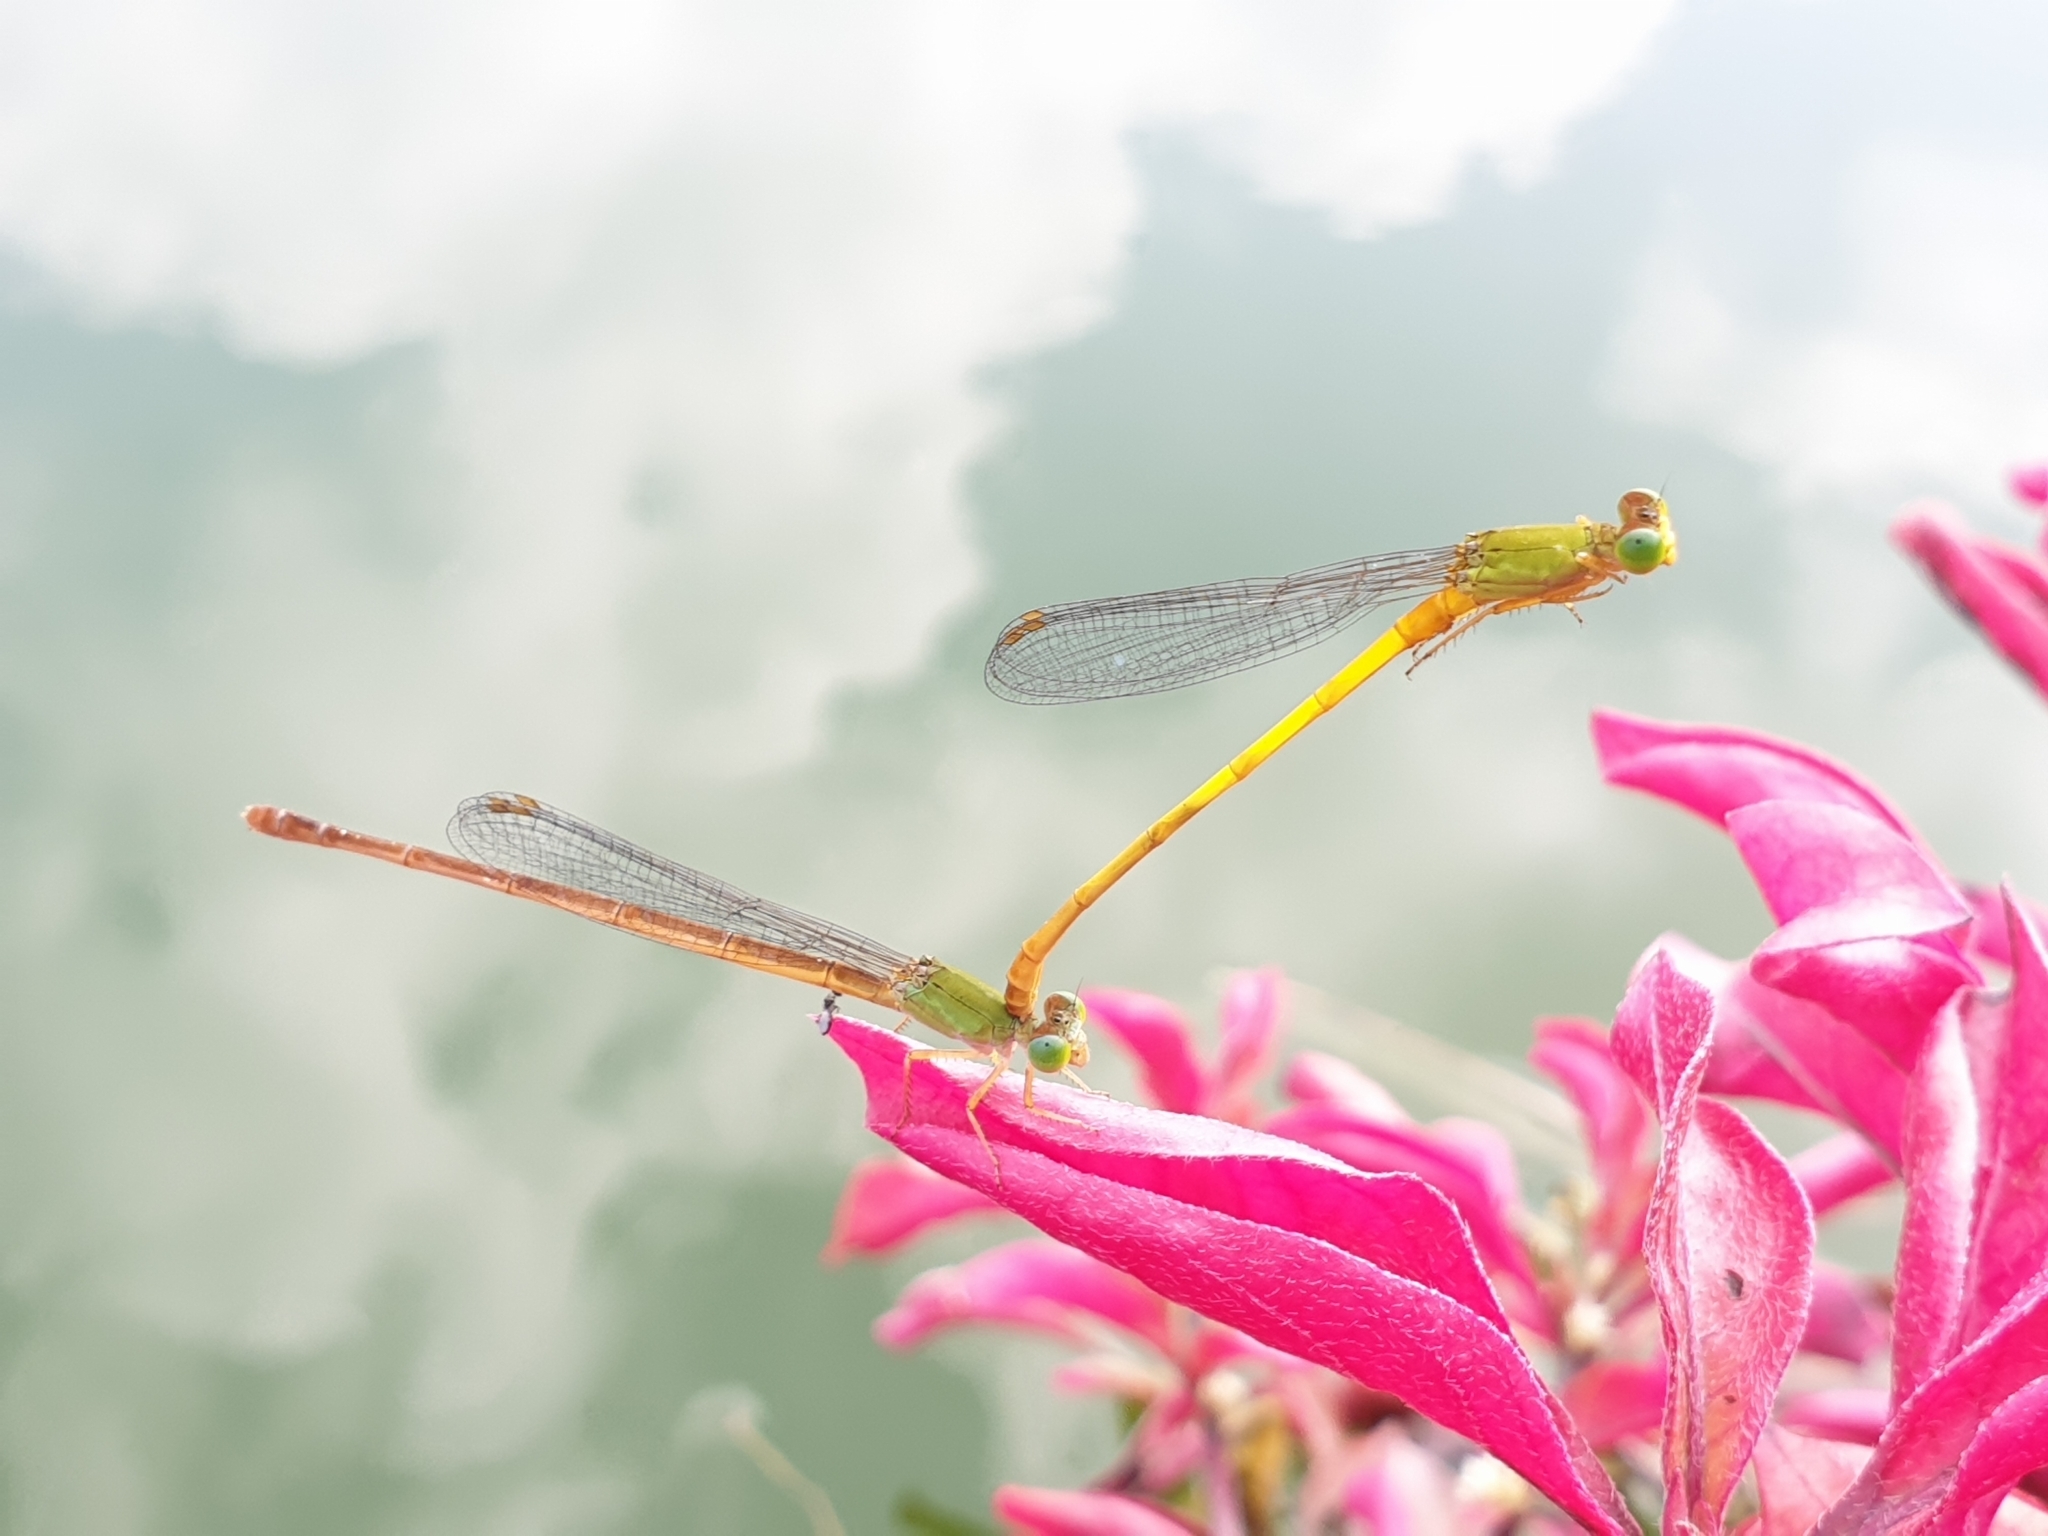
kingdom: Animalia
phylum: Arthropoda
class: Insecta
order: Odonata
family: Coenagrionidae
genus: Ceriagrion
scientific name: Ceriagrion coromandelianum
